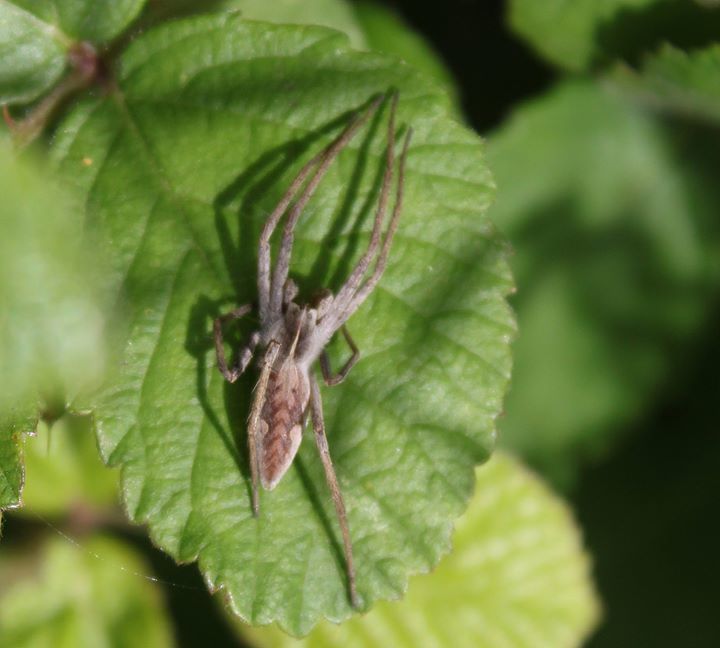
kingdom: Animalia
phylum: Arthropoda
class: Arachnida
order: Araneae
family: Pisauridae
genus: Pisaura
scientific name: Pisaura mirabilis
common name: Tent spider
